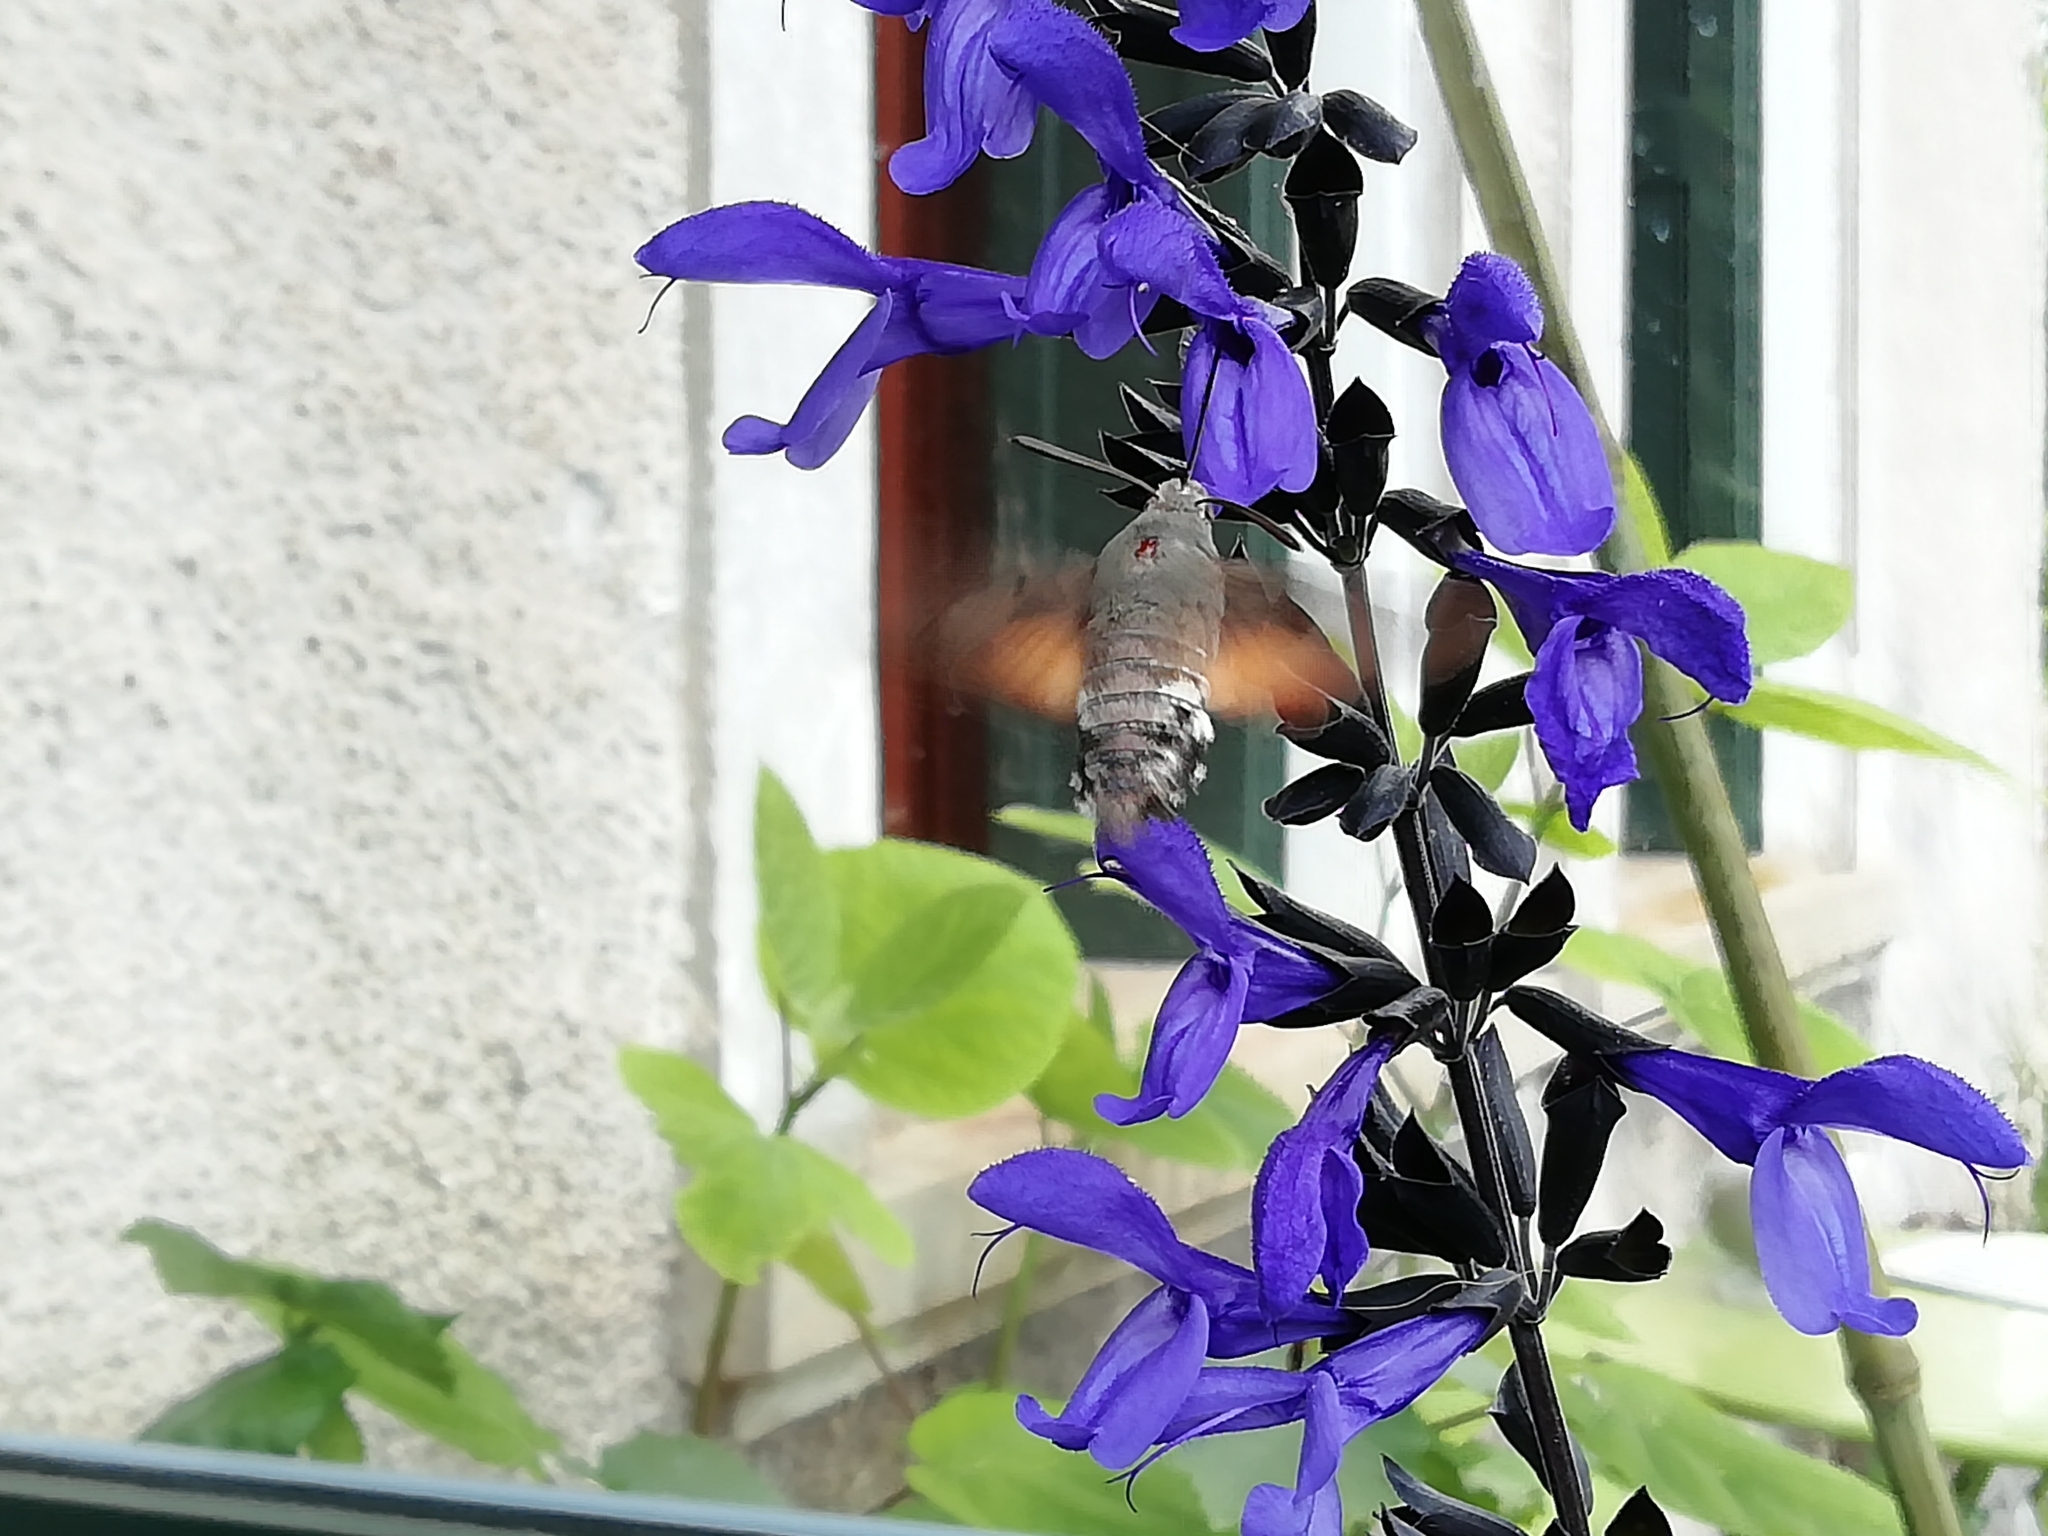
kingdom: Animalia
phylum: Arthropoda
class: Insecta
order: Lepidoptera
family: Sphingidae
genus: Macroglossum
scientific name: Macroglossum stellatarum
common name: Humming-bird hawk-moth
